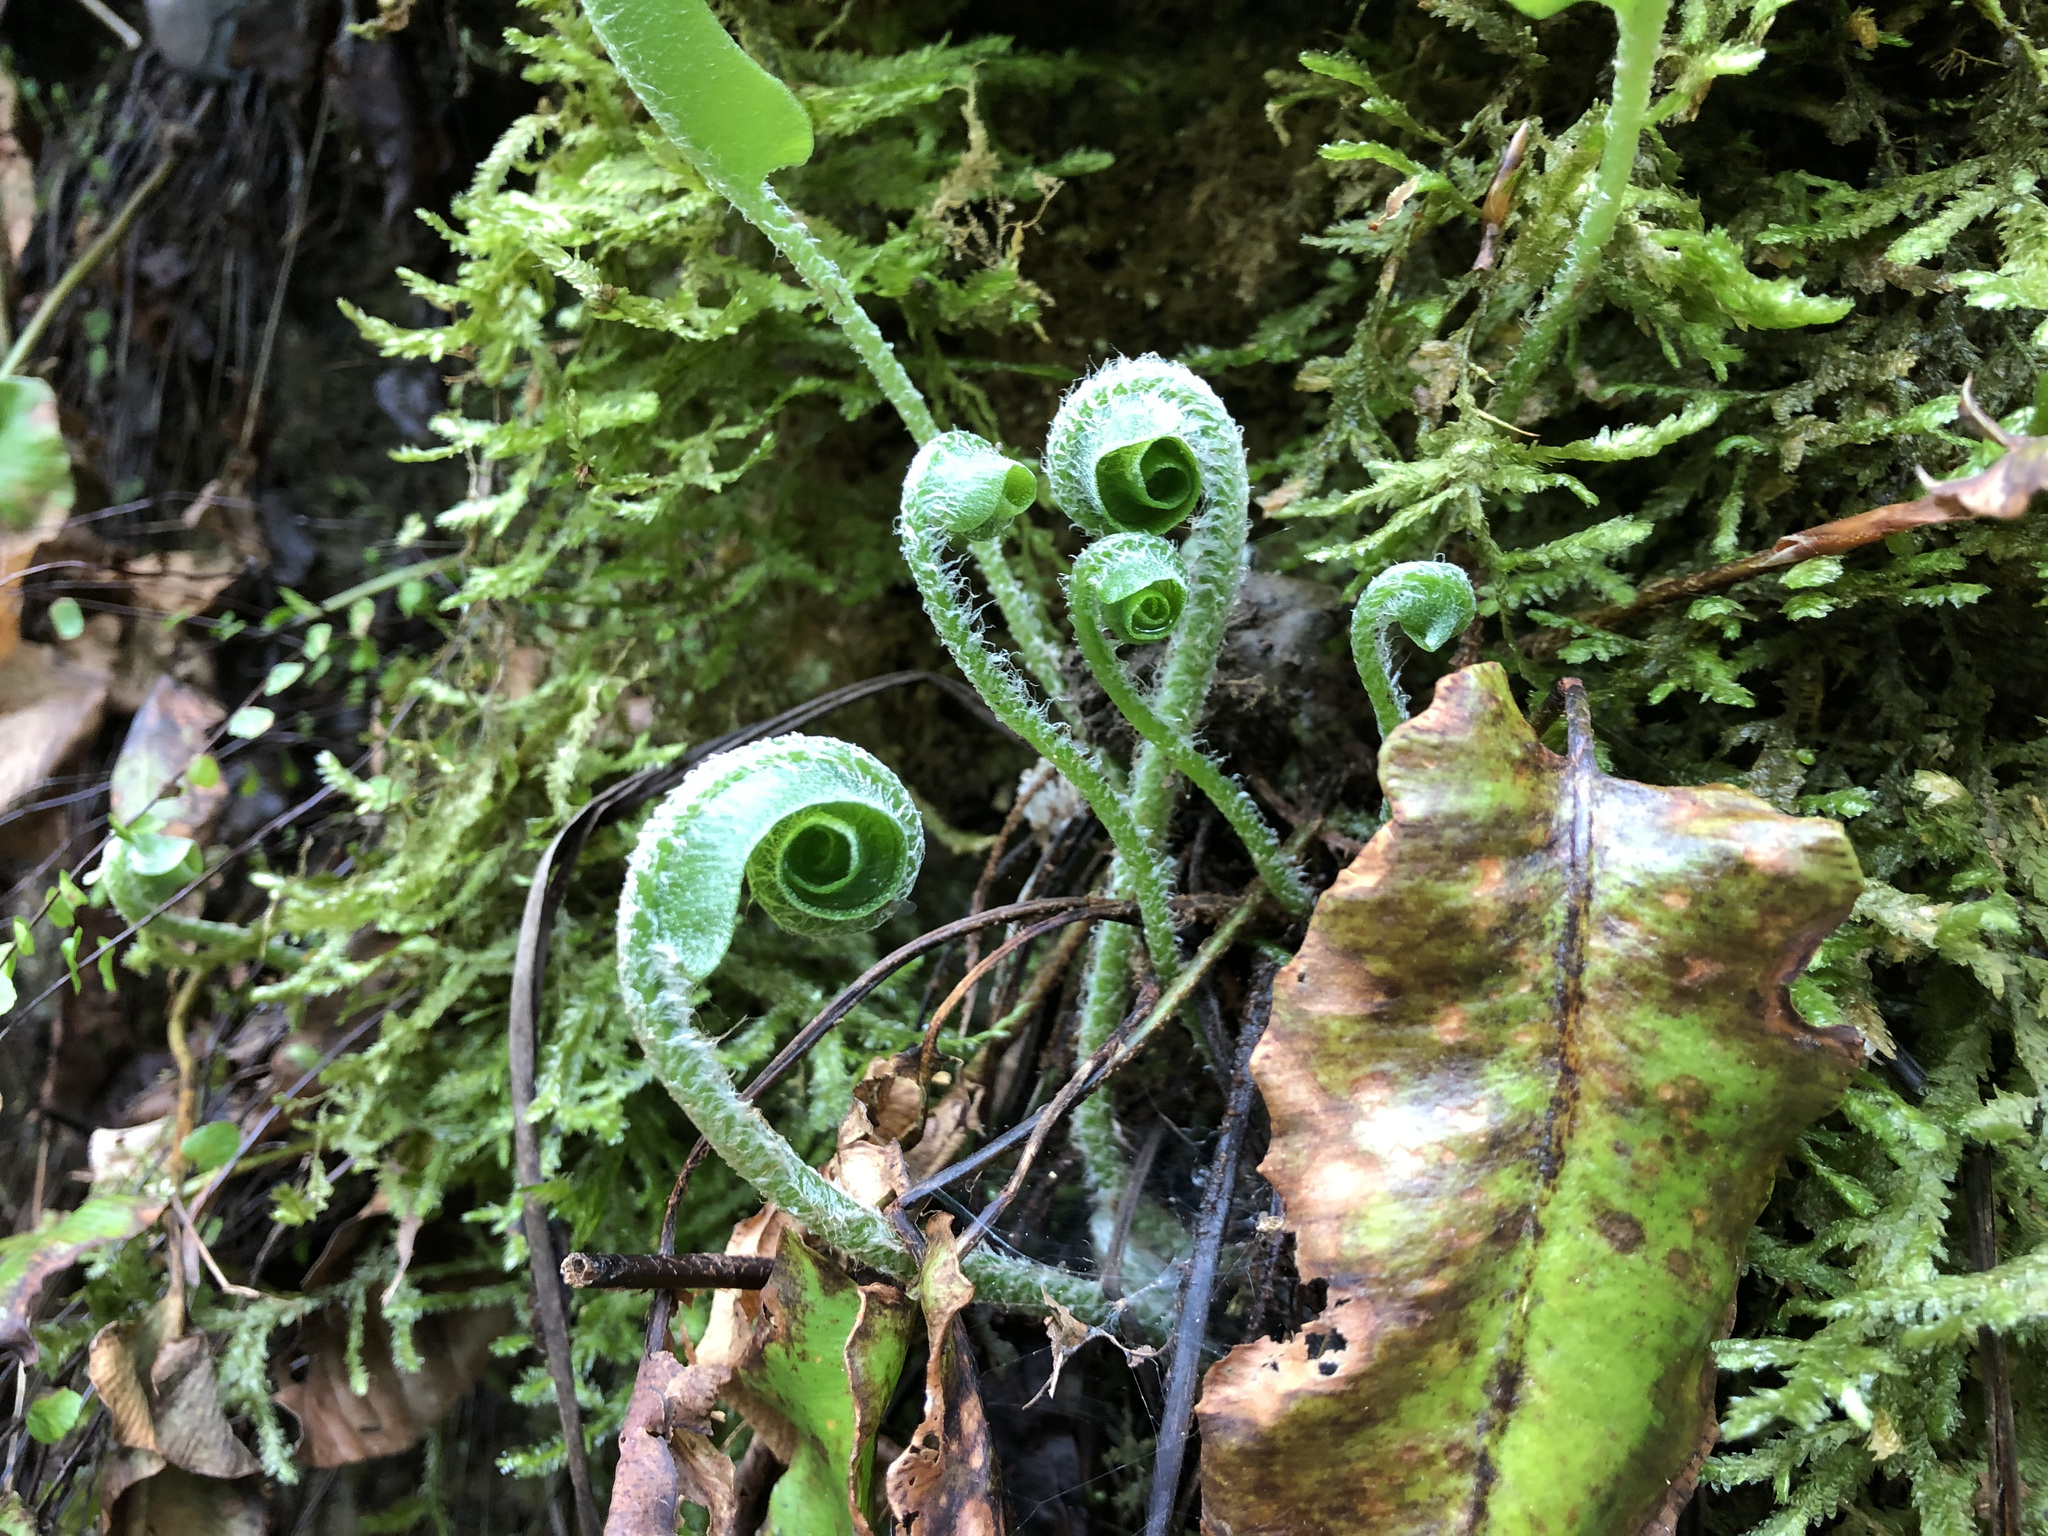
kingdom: Plantae
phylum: Tracheophyta
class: Polypodiopsida
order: Polypodiales
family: Aspleniaceae
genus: Asplenium
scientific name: Asplenium scolopendrium
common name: Hart's-tongue fern
